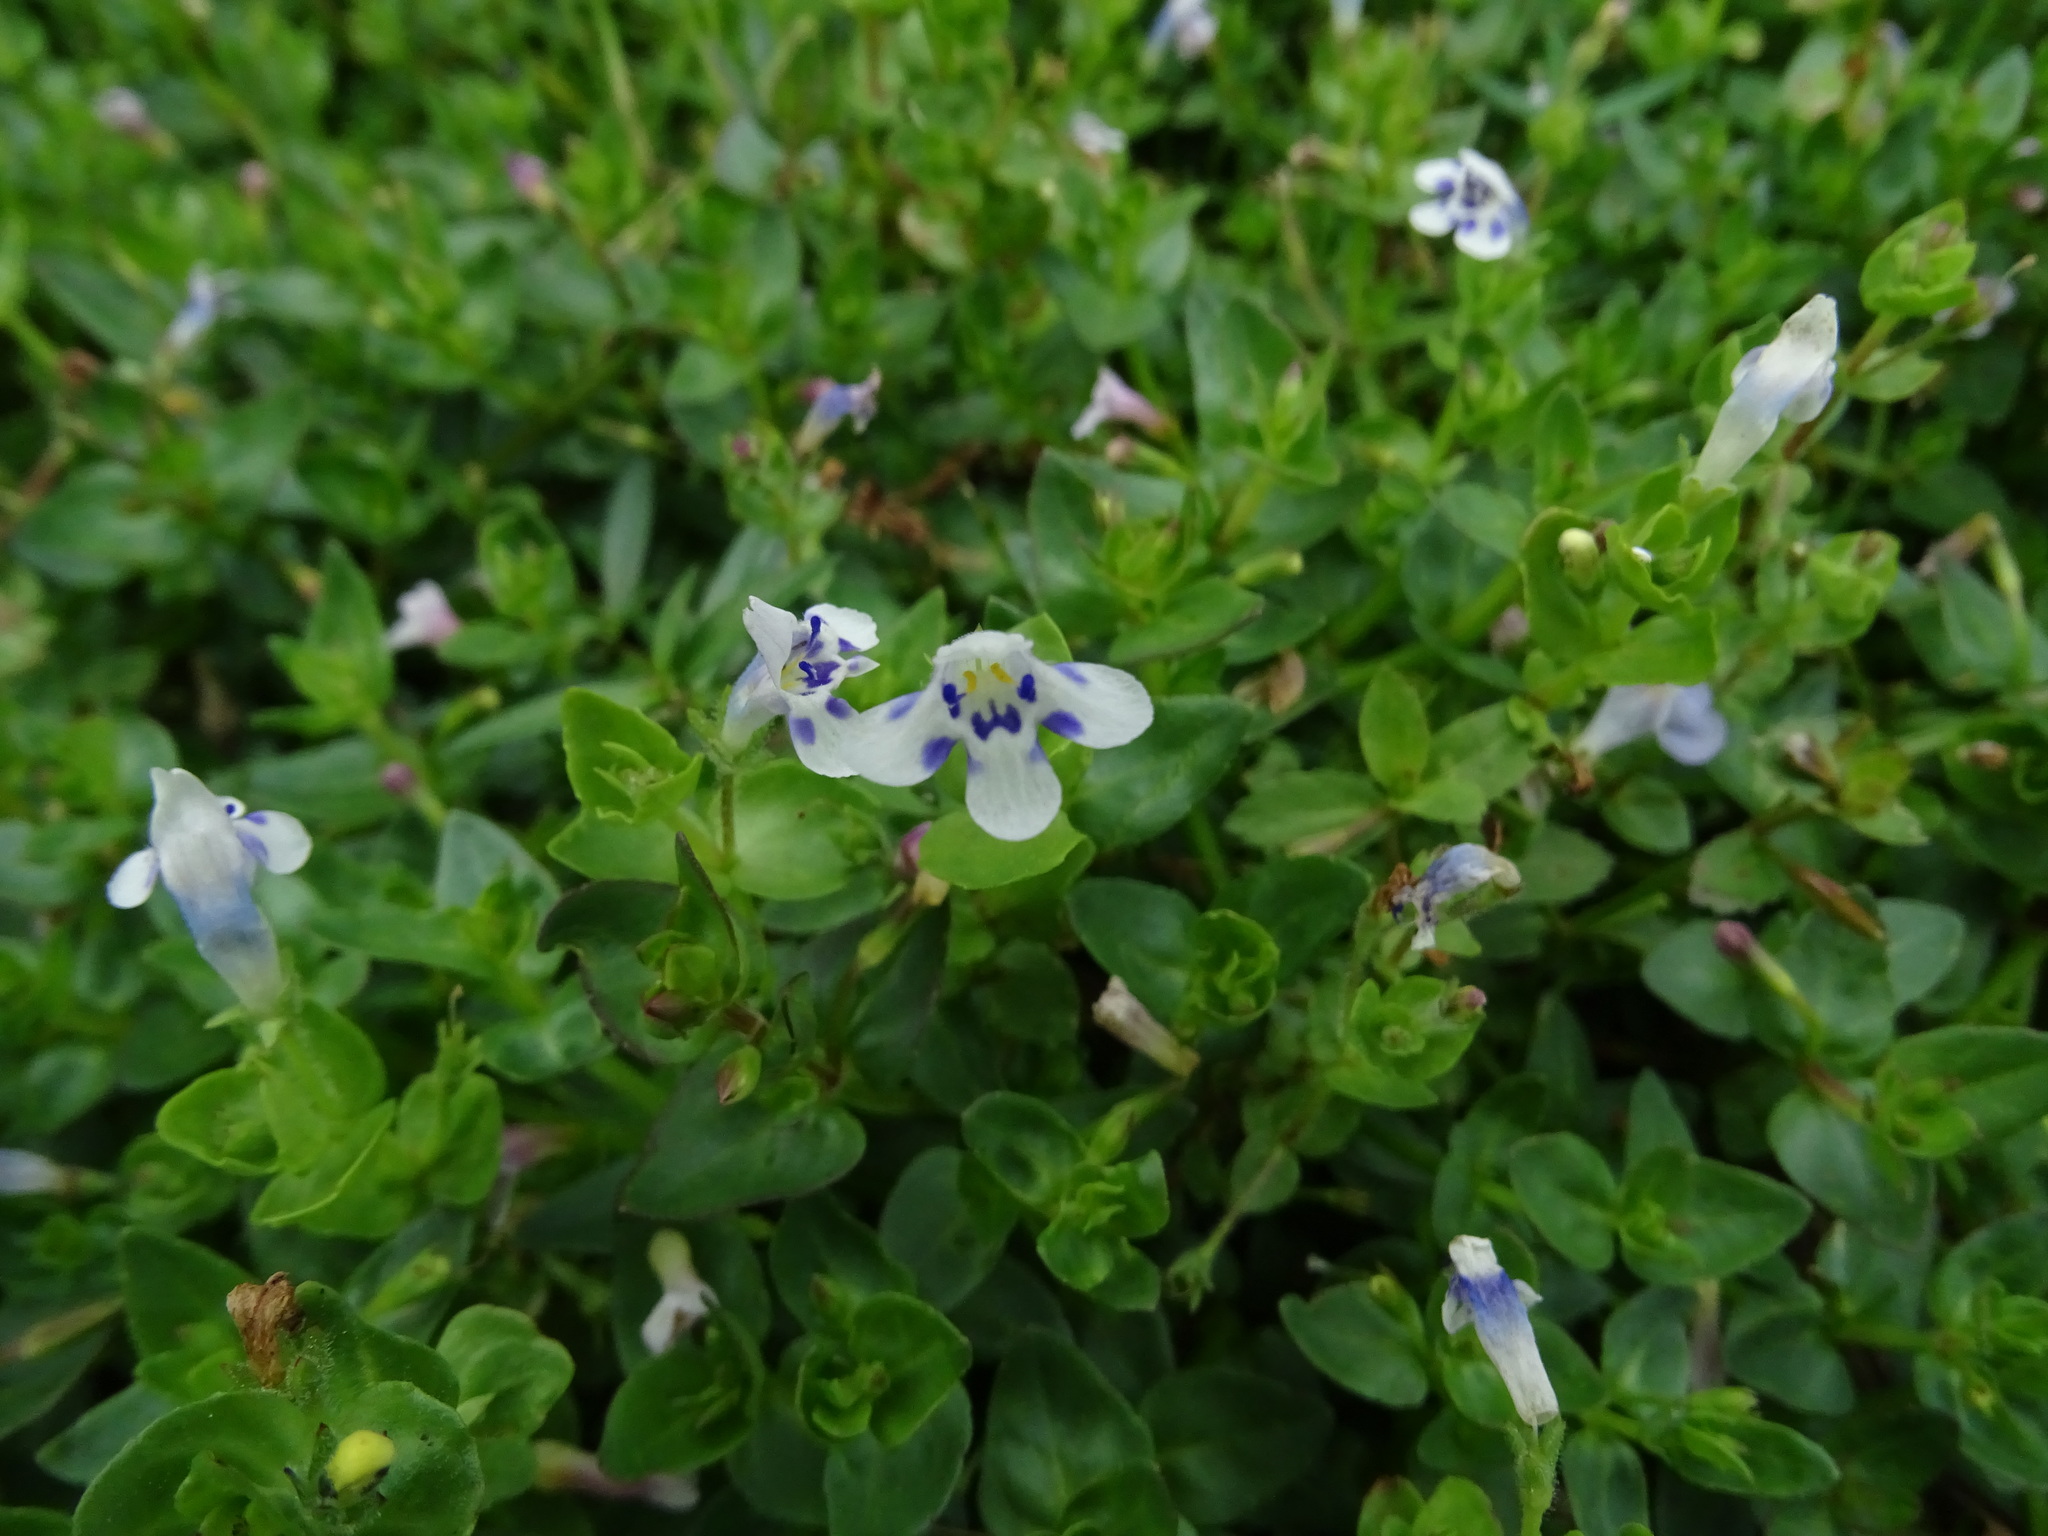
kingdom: Plantae
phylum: Tracheophyta
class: Magnoliopsida
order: Lamiales
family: Linderniaceae
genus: Lindernia
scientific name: Lindernia rotundifolia
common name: Baby’s tears
